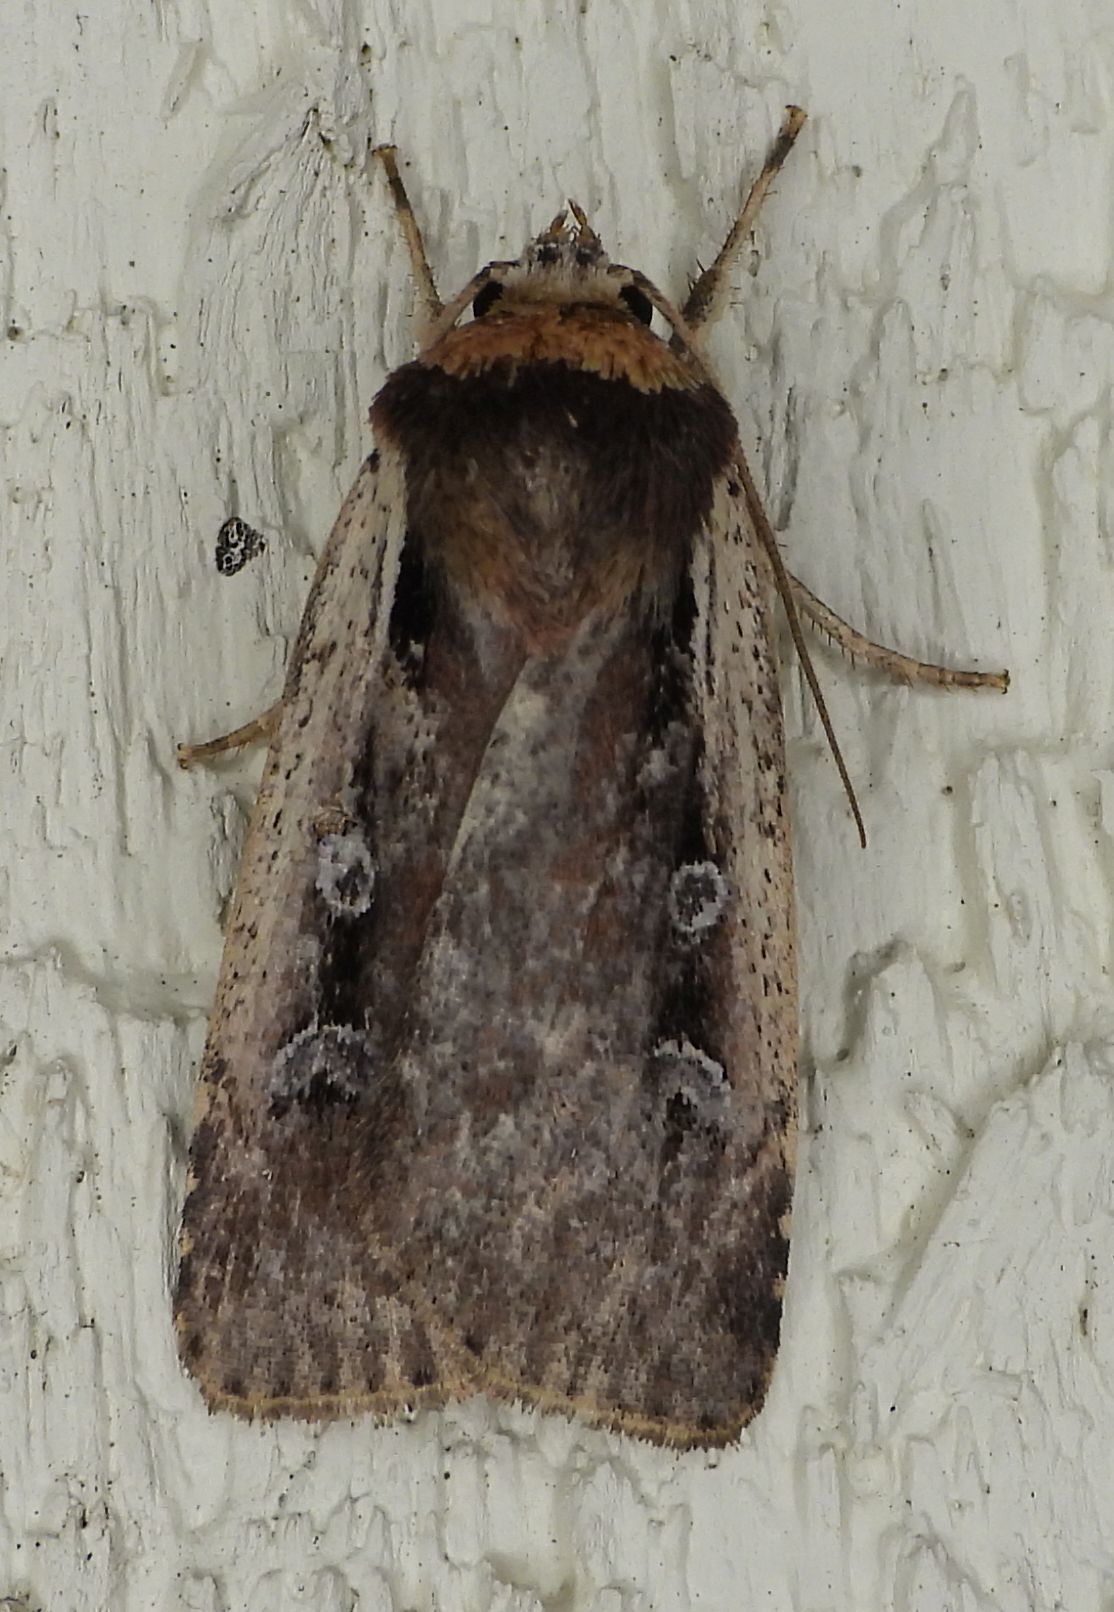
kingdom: Animalia
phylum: Arthropoda
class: Insecta
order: Lepidoptera
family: Noctuidae
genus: Ochropleura
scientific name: Ochropleura implecta
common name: Flame-shouldered dart
